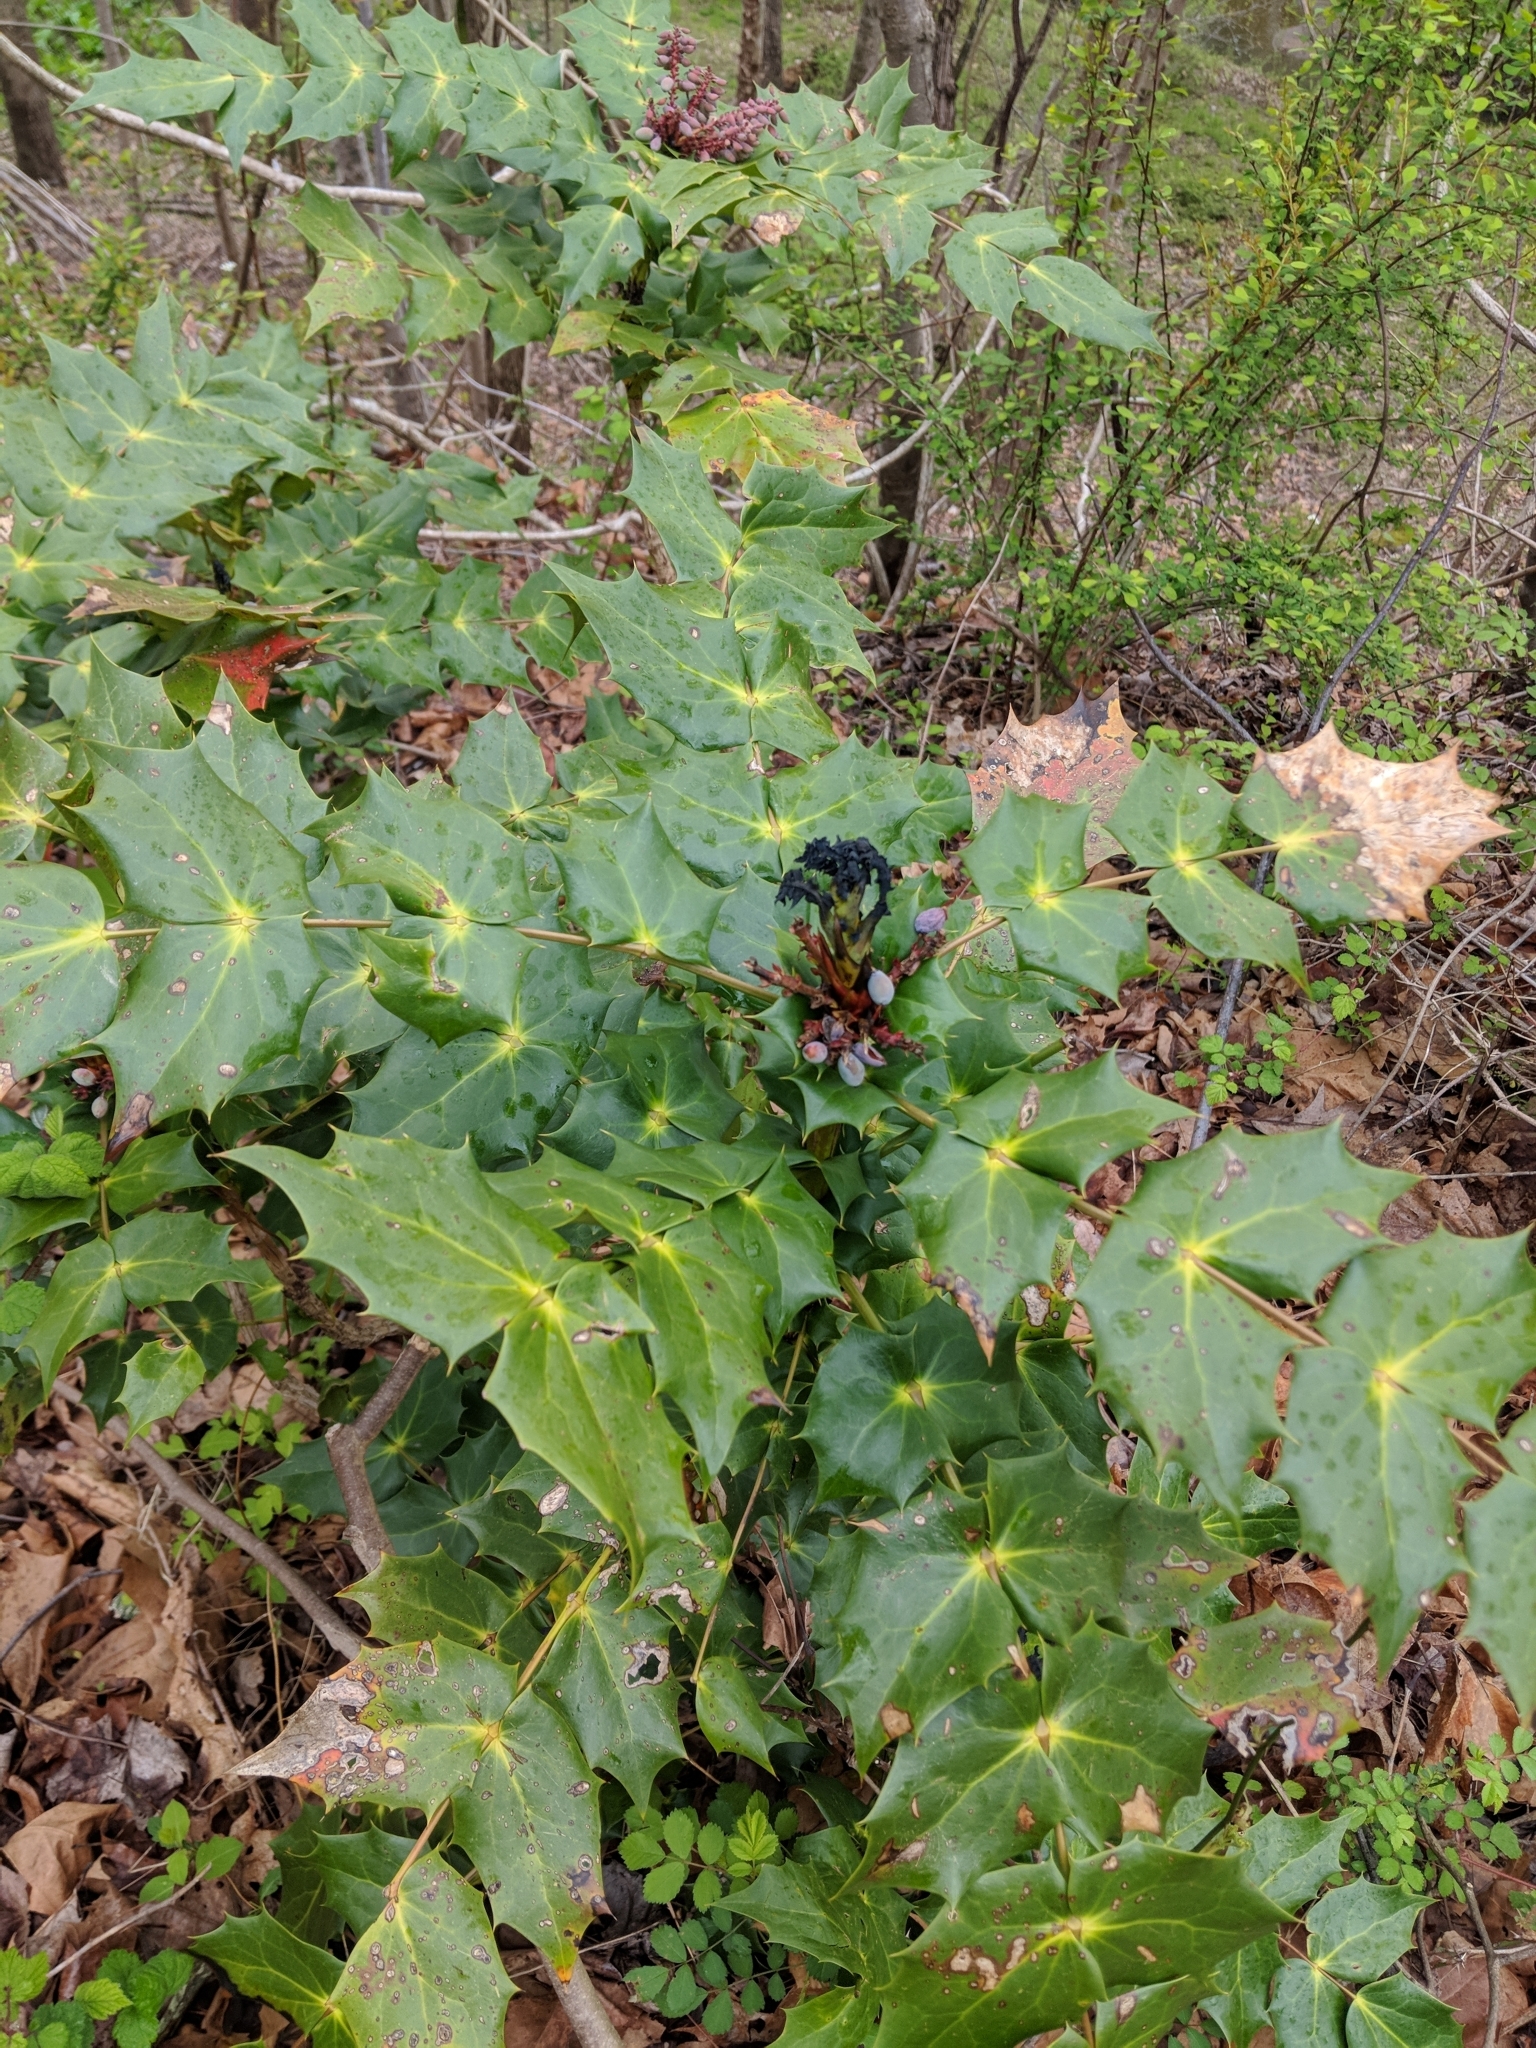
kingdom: Plantae
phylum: Tracheophyta
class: Magnoliopsida
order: Ranunculales
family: Berberidaceae
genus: Mahonia
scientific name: Mahonia bealei
